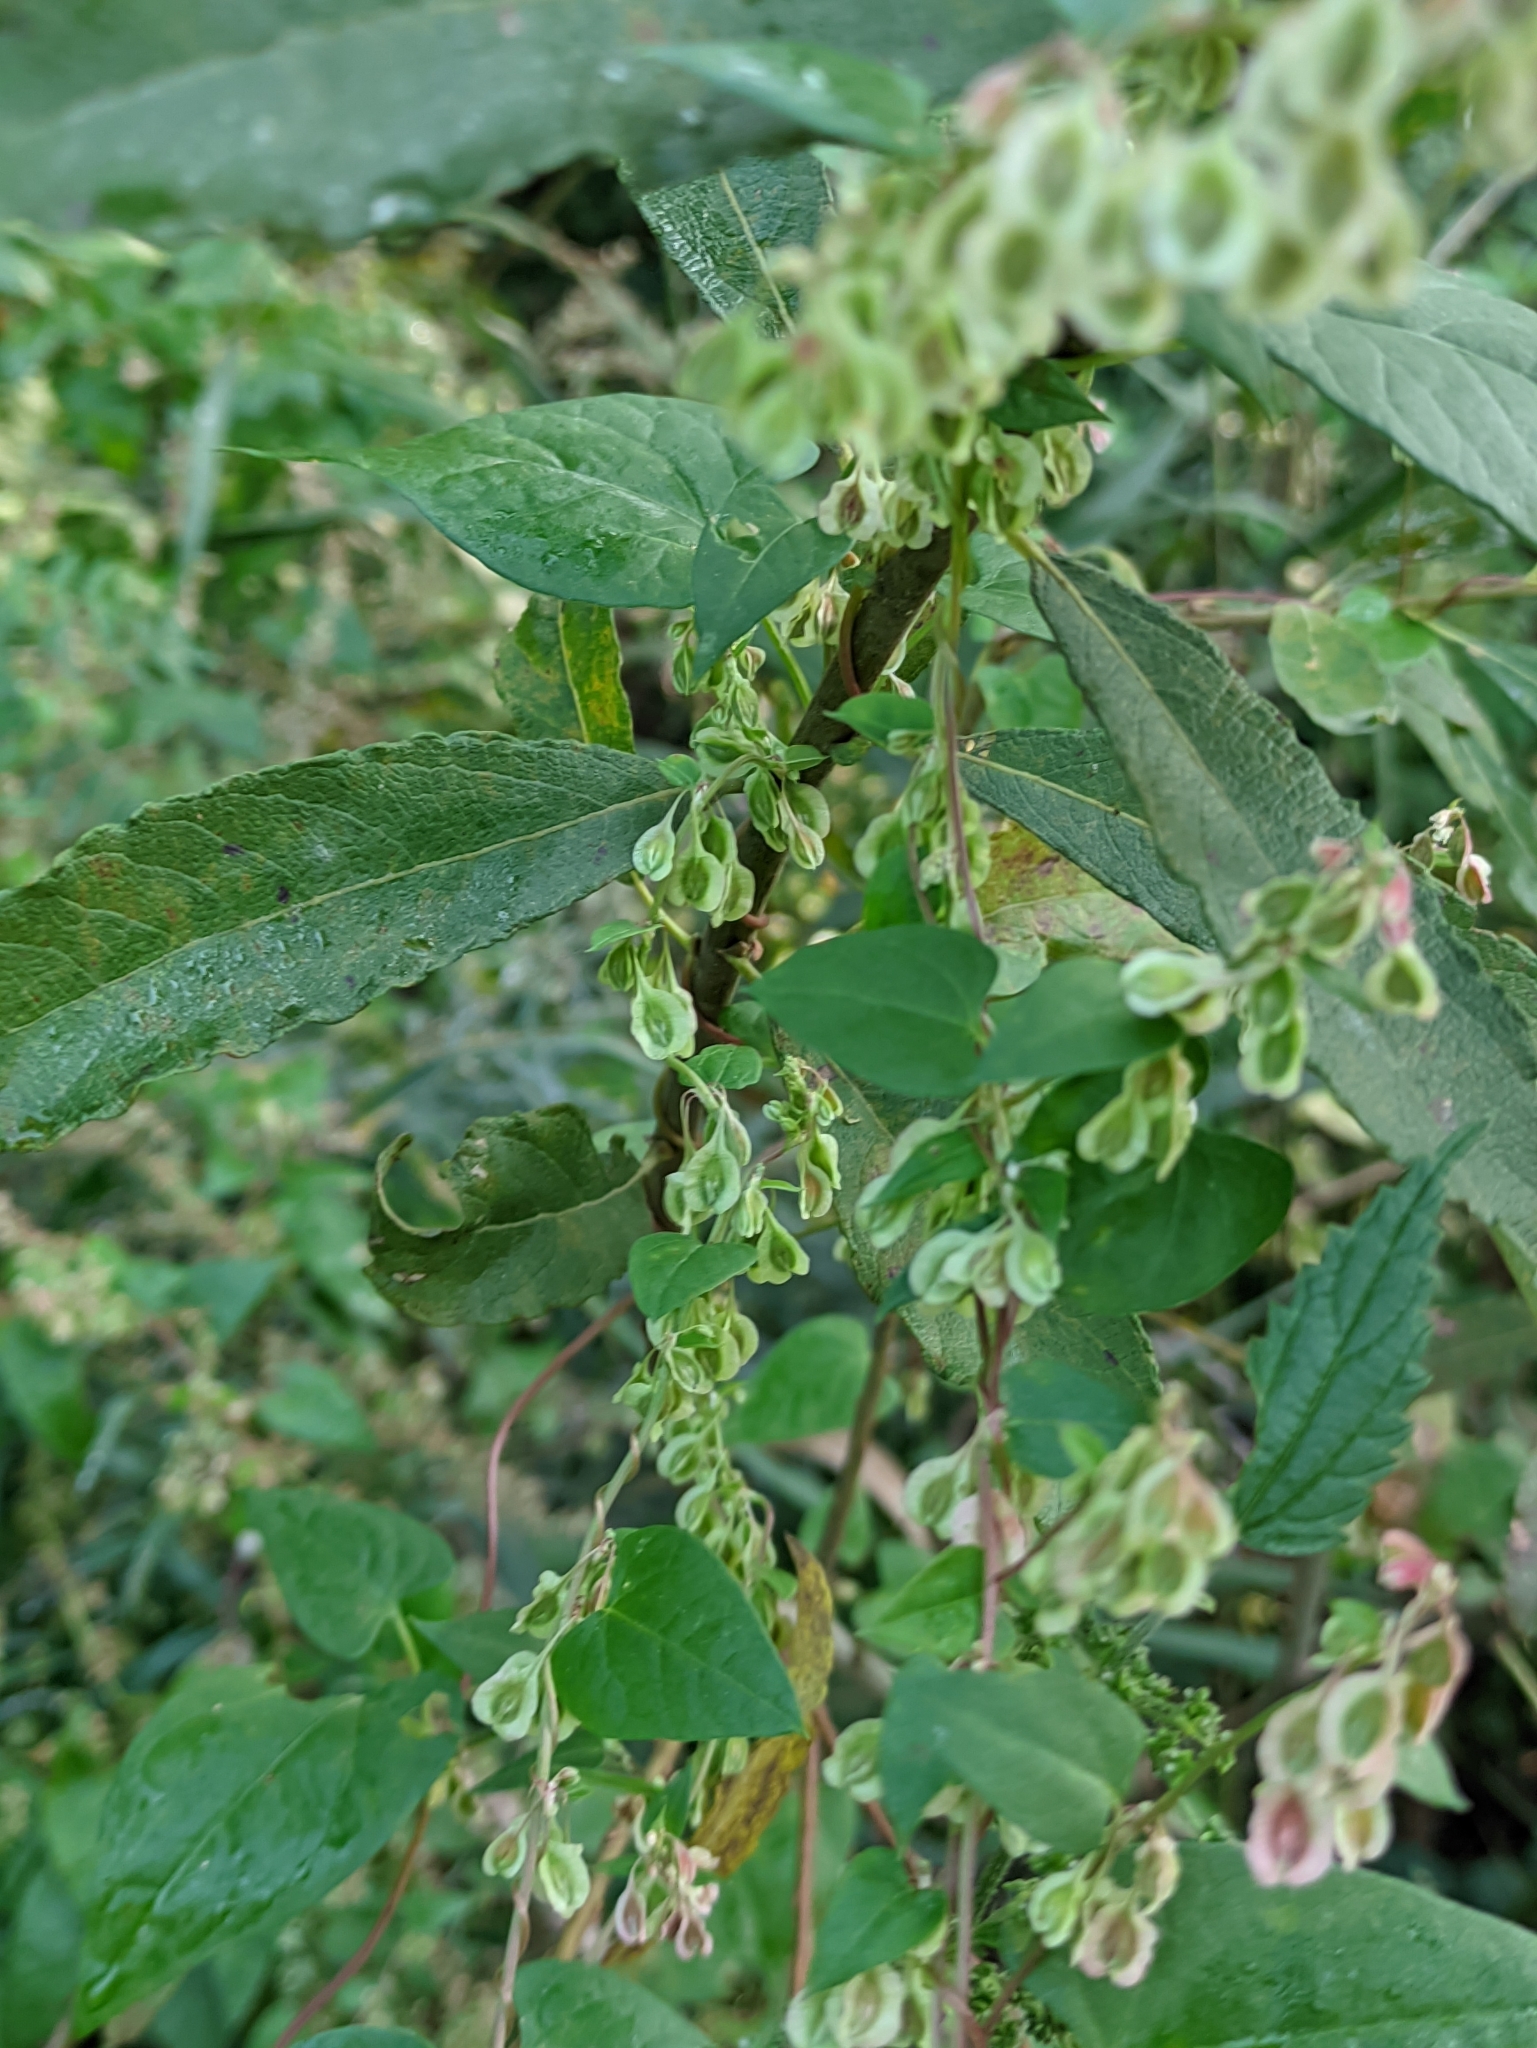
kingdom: Plantae
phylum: Tracheophyta
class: Magnoliopsida
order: Caryophyllales
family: Polygonaceae
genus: Fallopia
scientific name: Fallopia dumetorum
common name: Copse-bindweed
